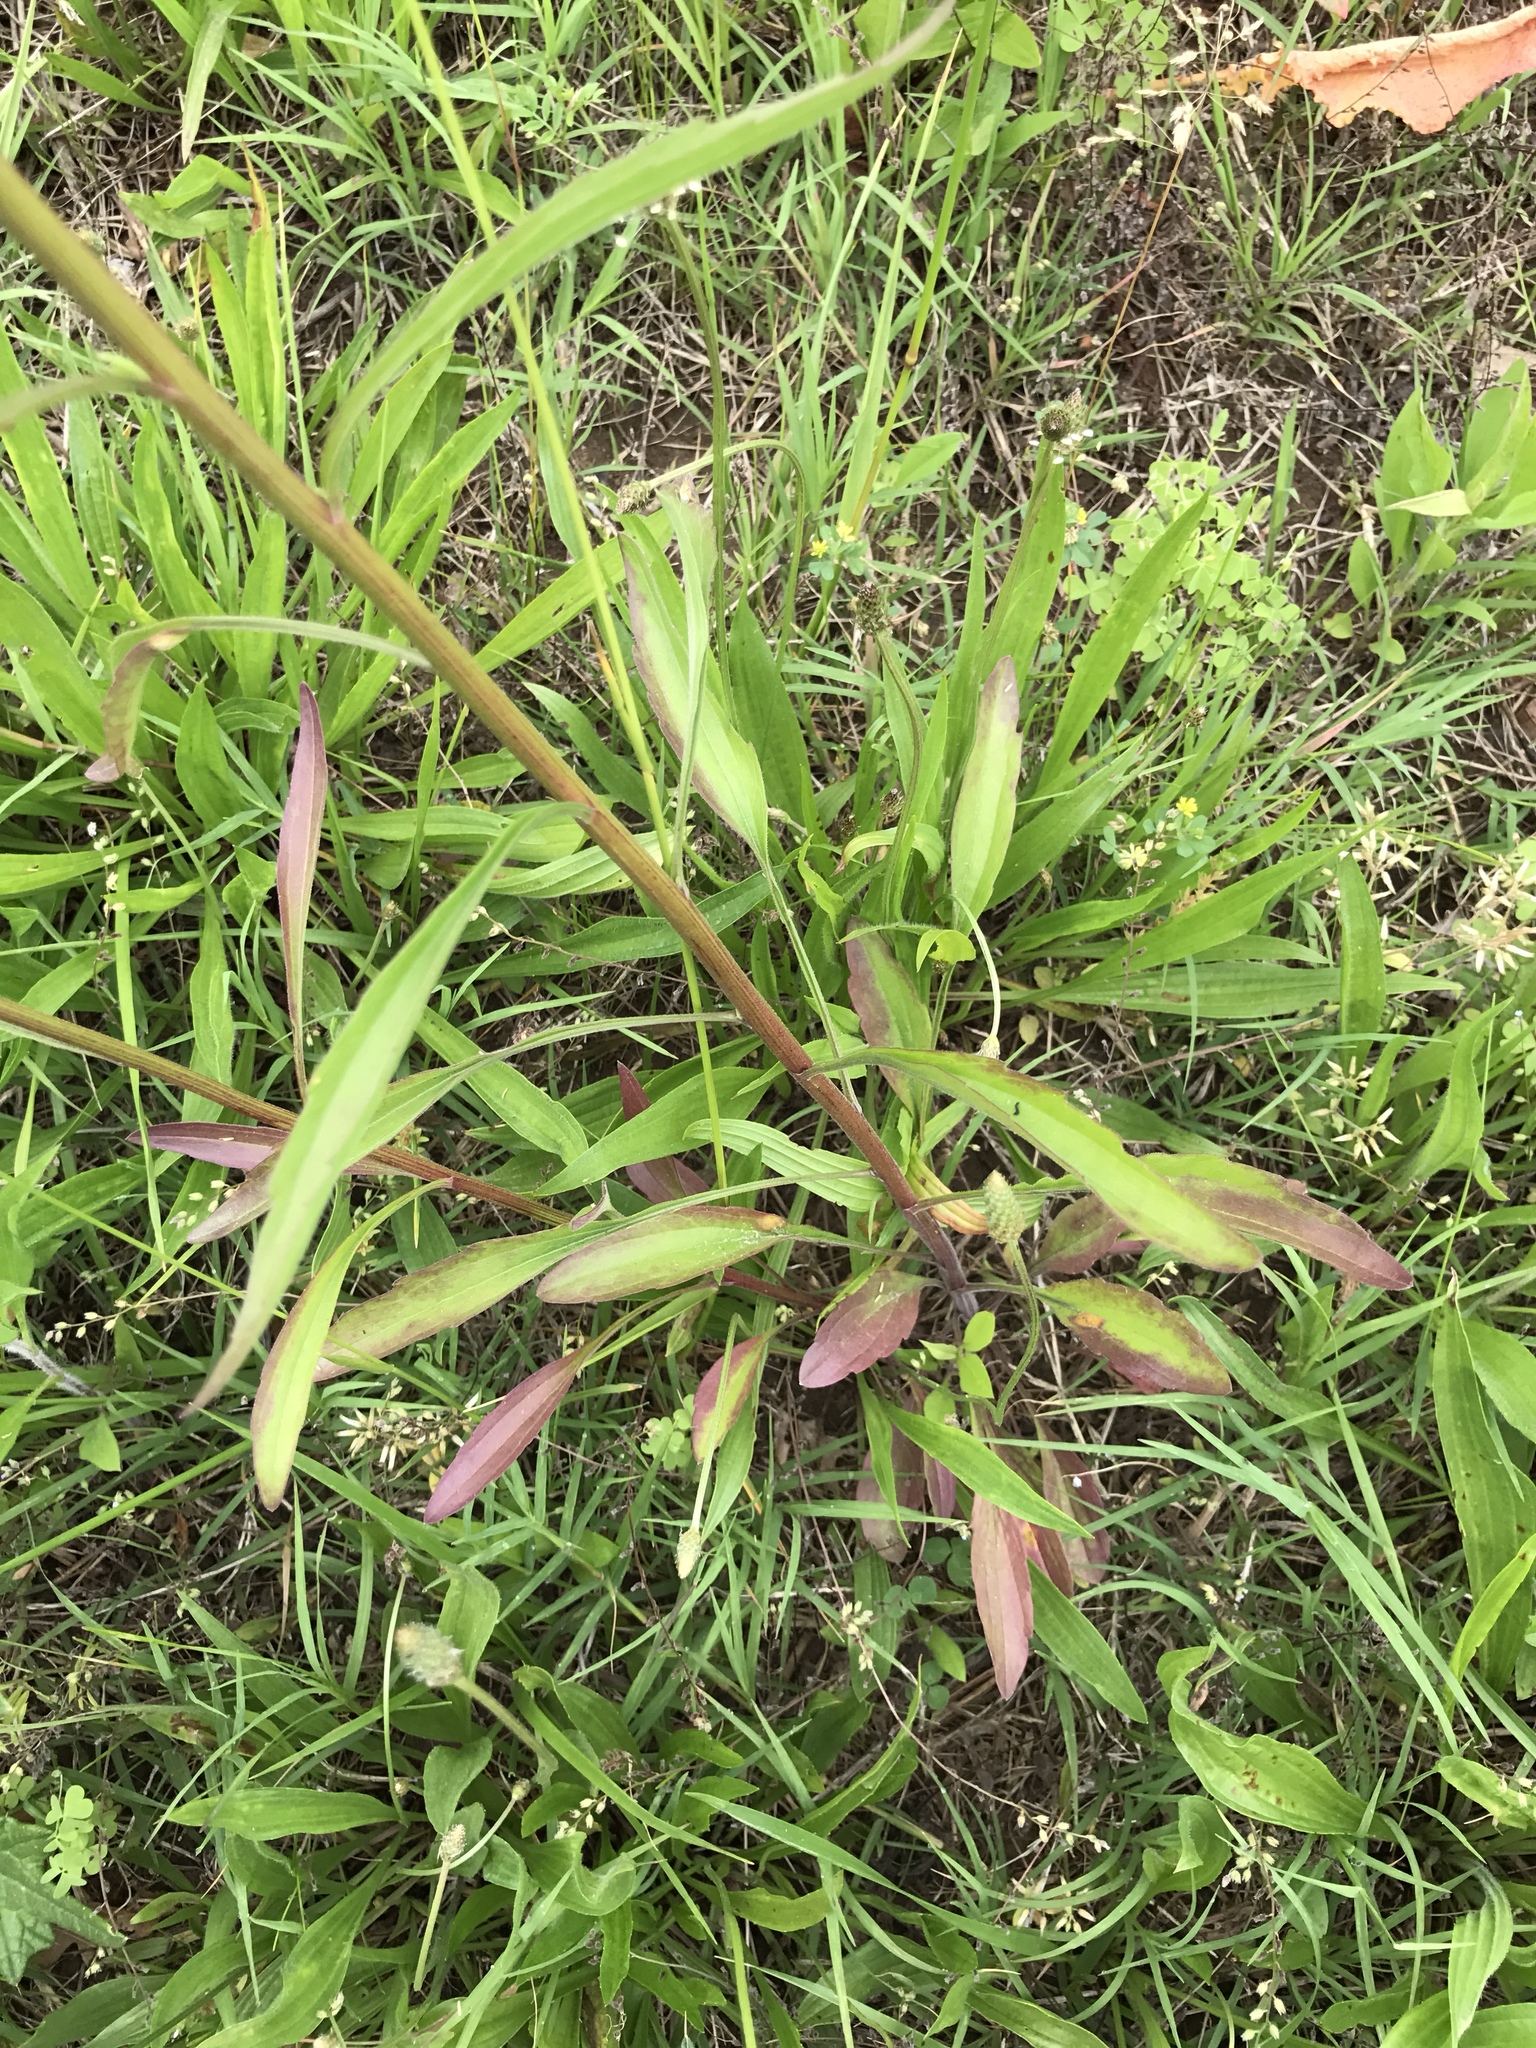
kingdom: Plantae
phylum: Tracheophyta
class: Magnoliopsida
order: Asterales
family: Asteraceae
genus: Erigeron
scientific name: Erigeron strigosus
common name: Common eastern fleabane
